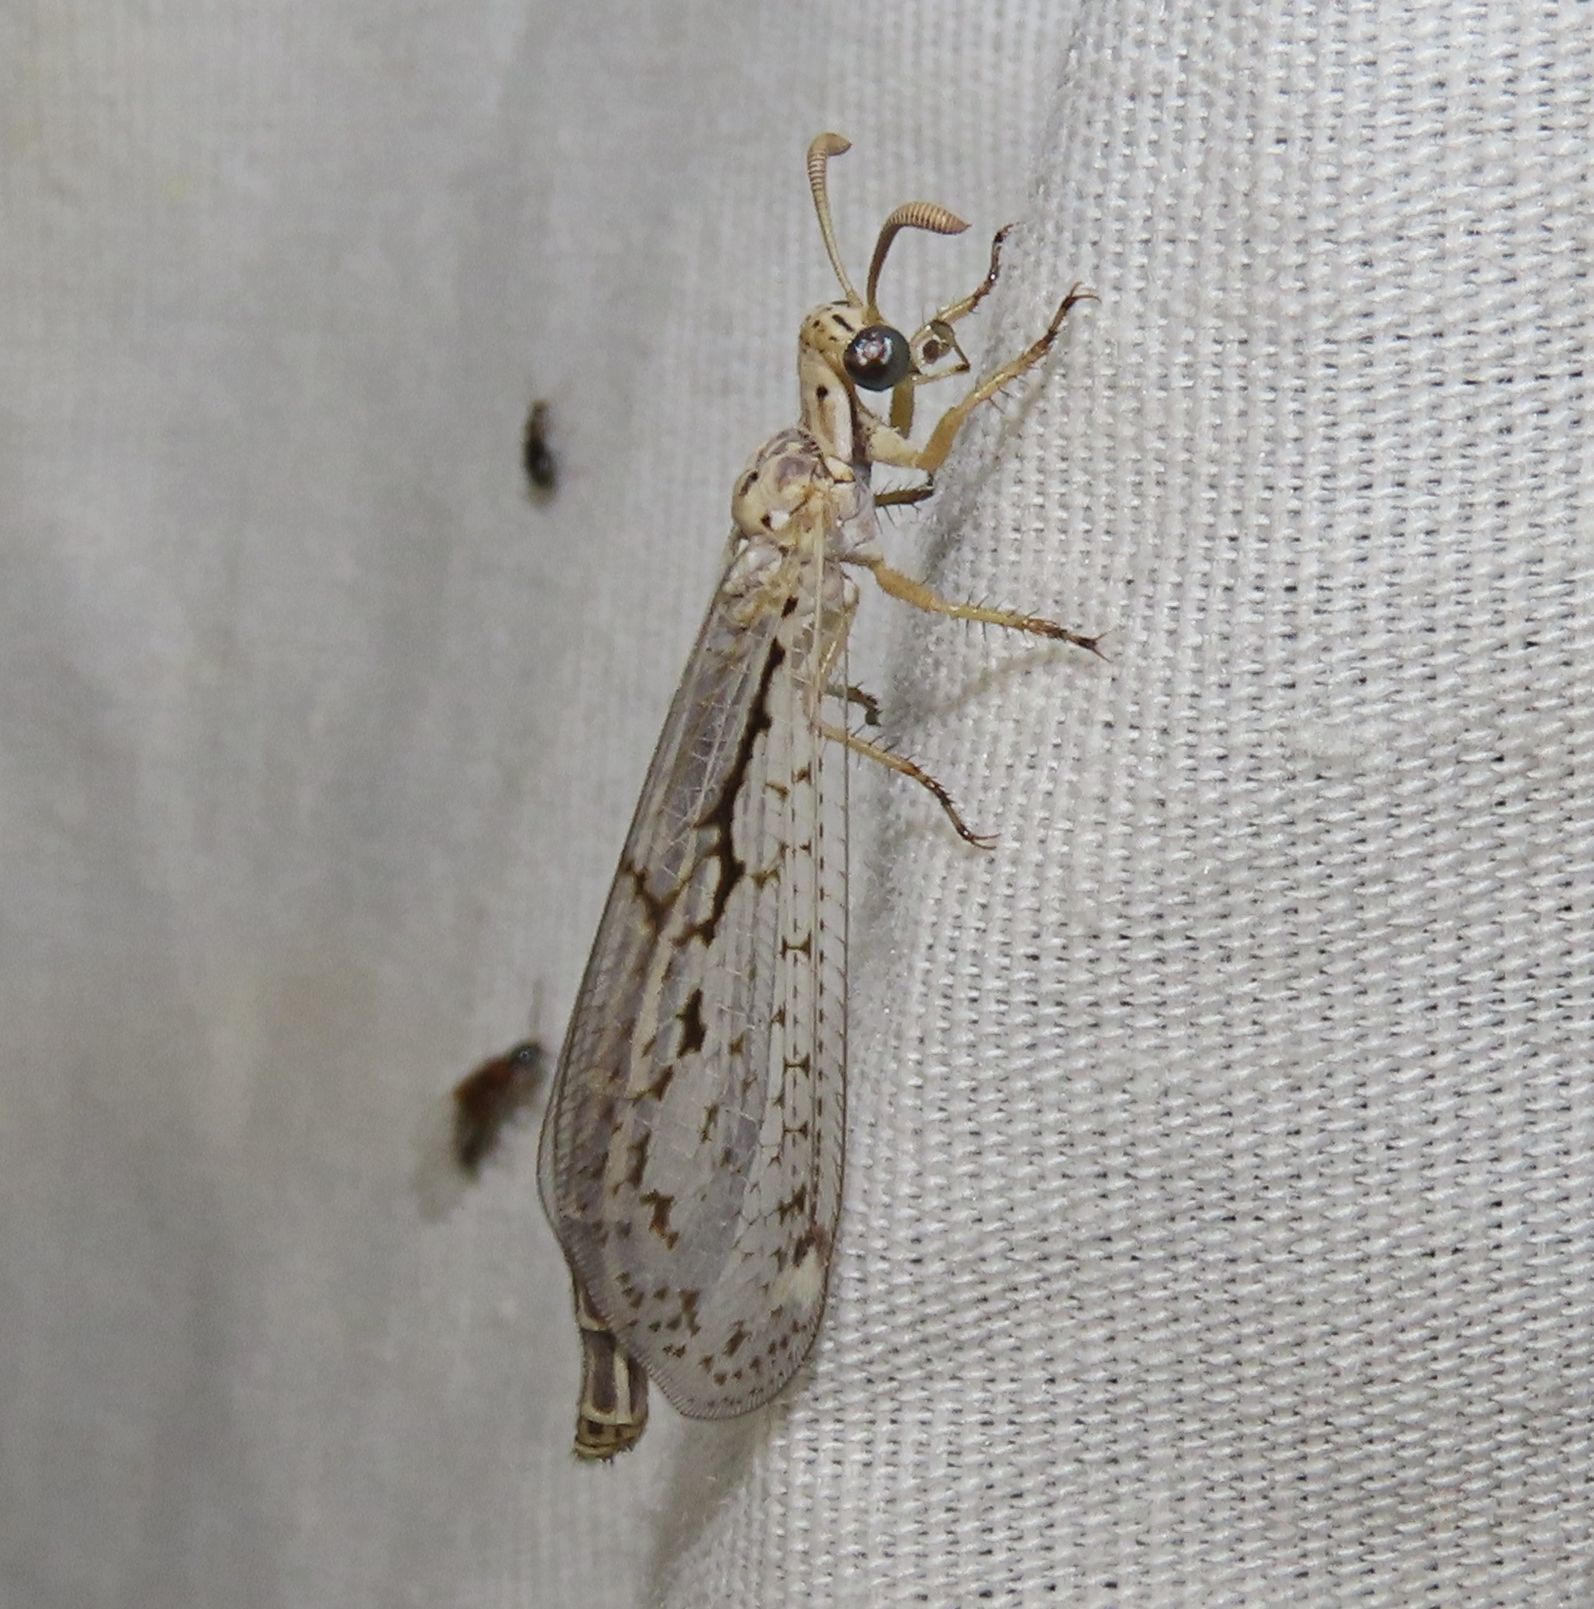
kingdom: Animalia
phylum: Arthropoda
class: Insecta
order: Neuroptera
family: Myrmeleontidae
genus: Scotoleon
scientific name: Scotoleon longipalpis
